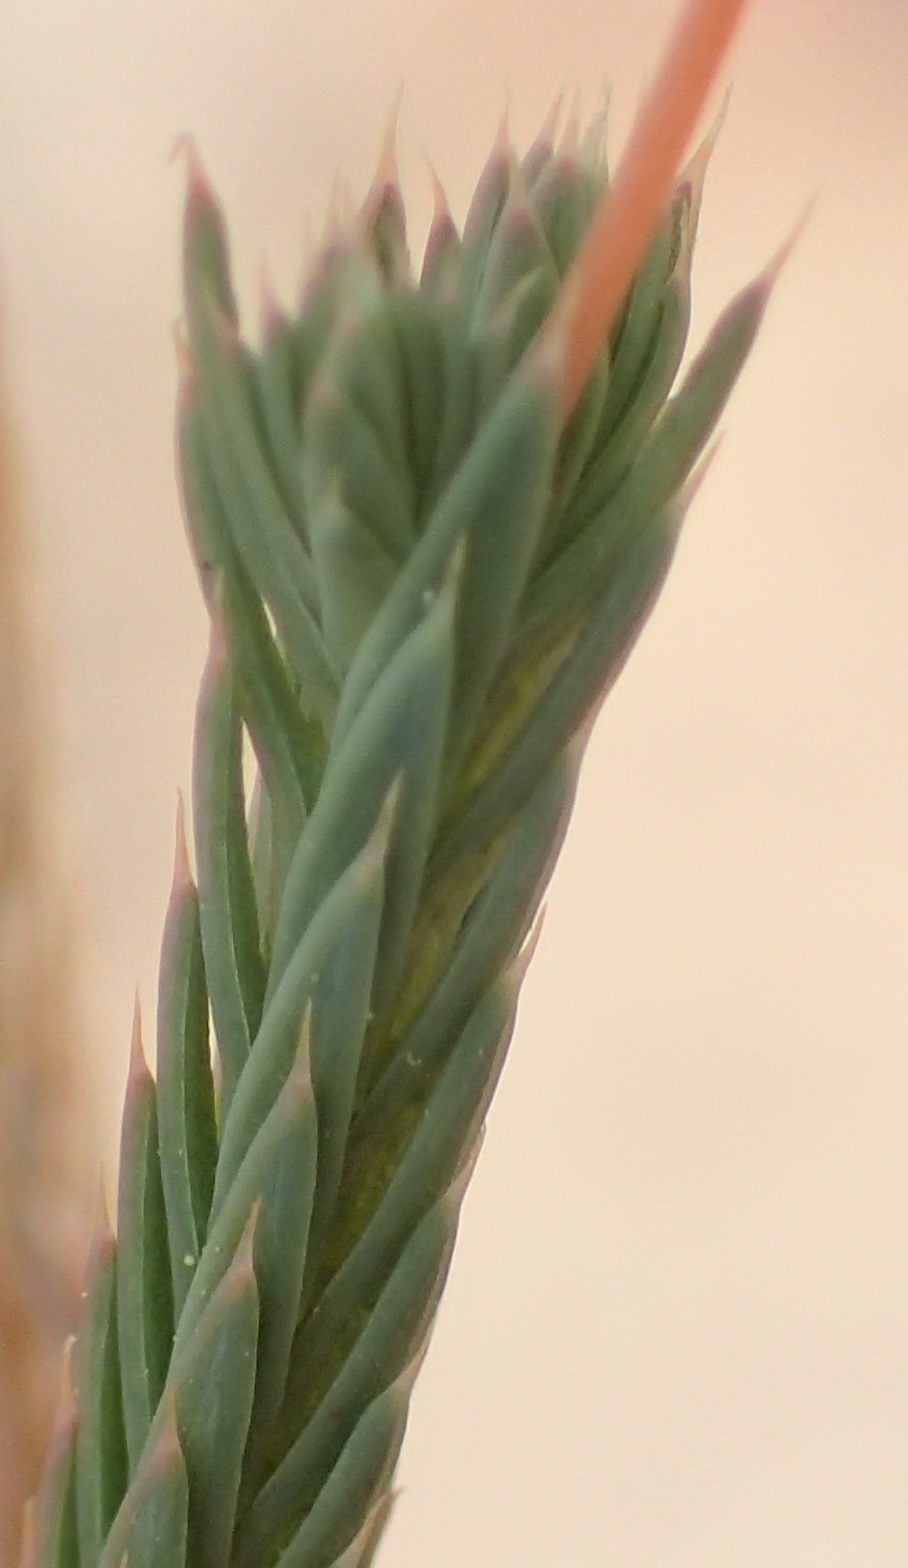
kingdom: Plantae
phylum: Tracheophyta
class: Magnoliopsida
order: Caryophyllales
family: Molluginaceae
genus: Psammotropha
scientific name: Psammotropha quadrangularis
